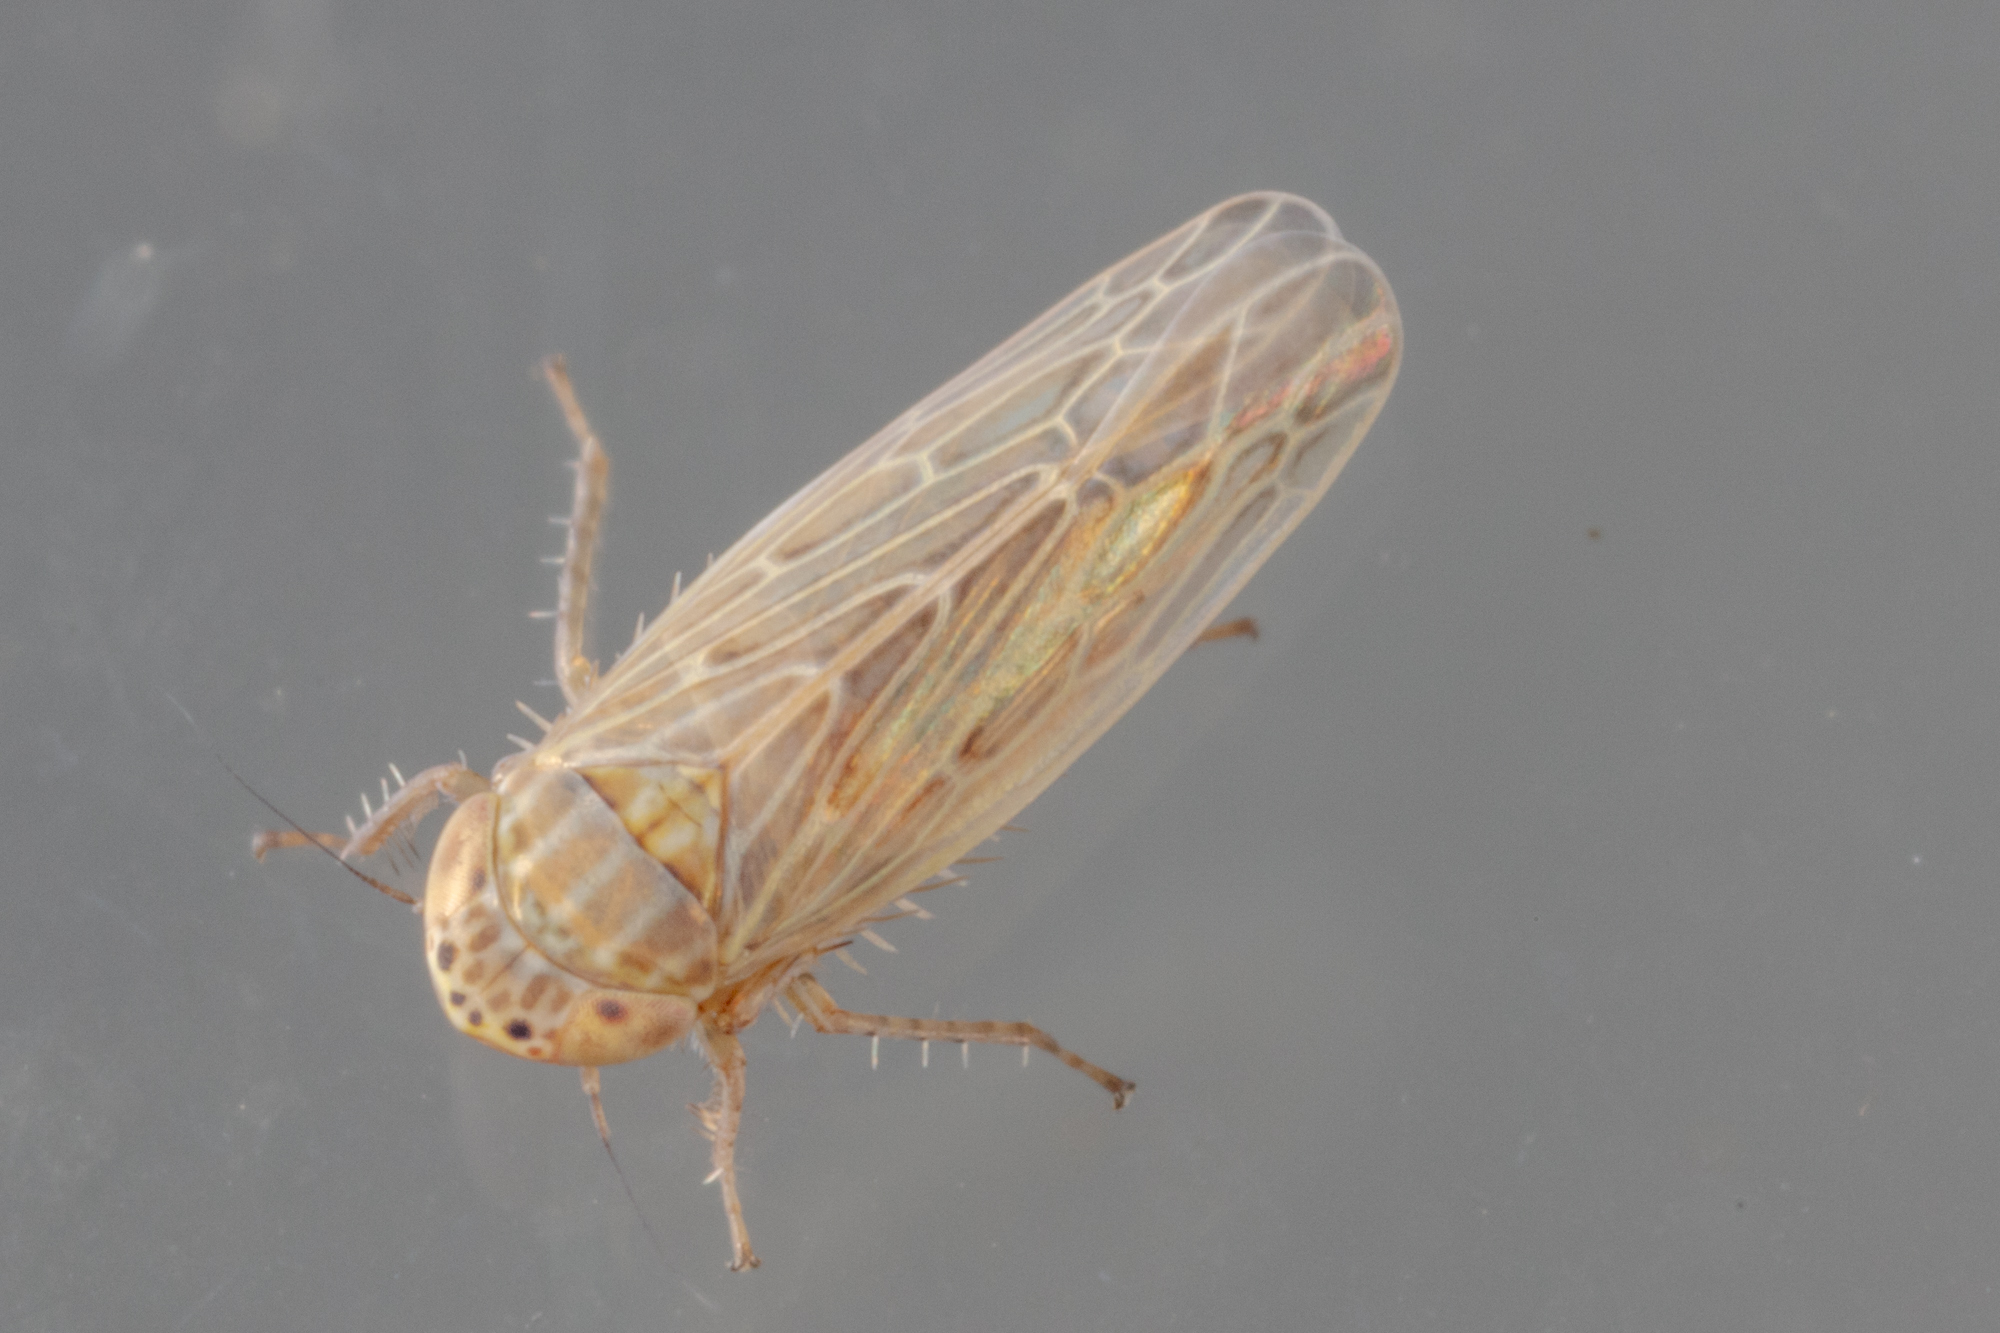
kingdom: Animalia
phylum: Arthropoda
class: Insecta
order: Hemiptera
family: Cicadellidae
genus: Graminella
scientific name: Graminella sonora
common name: Lesser lawn leafhopper
